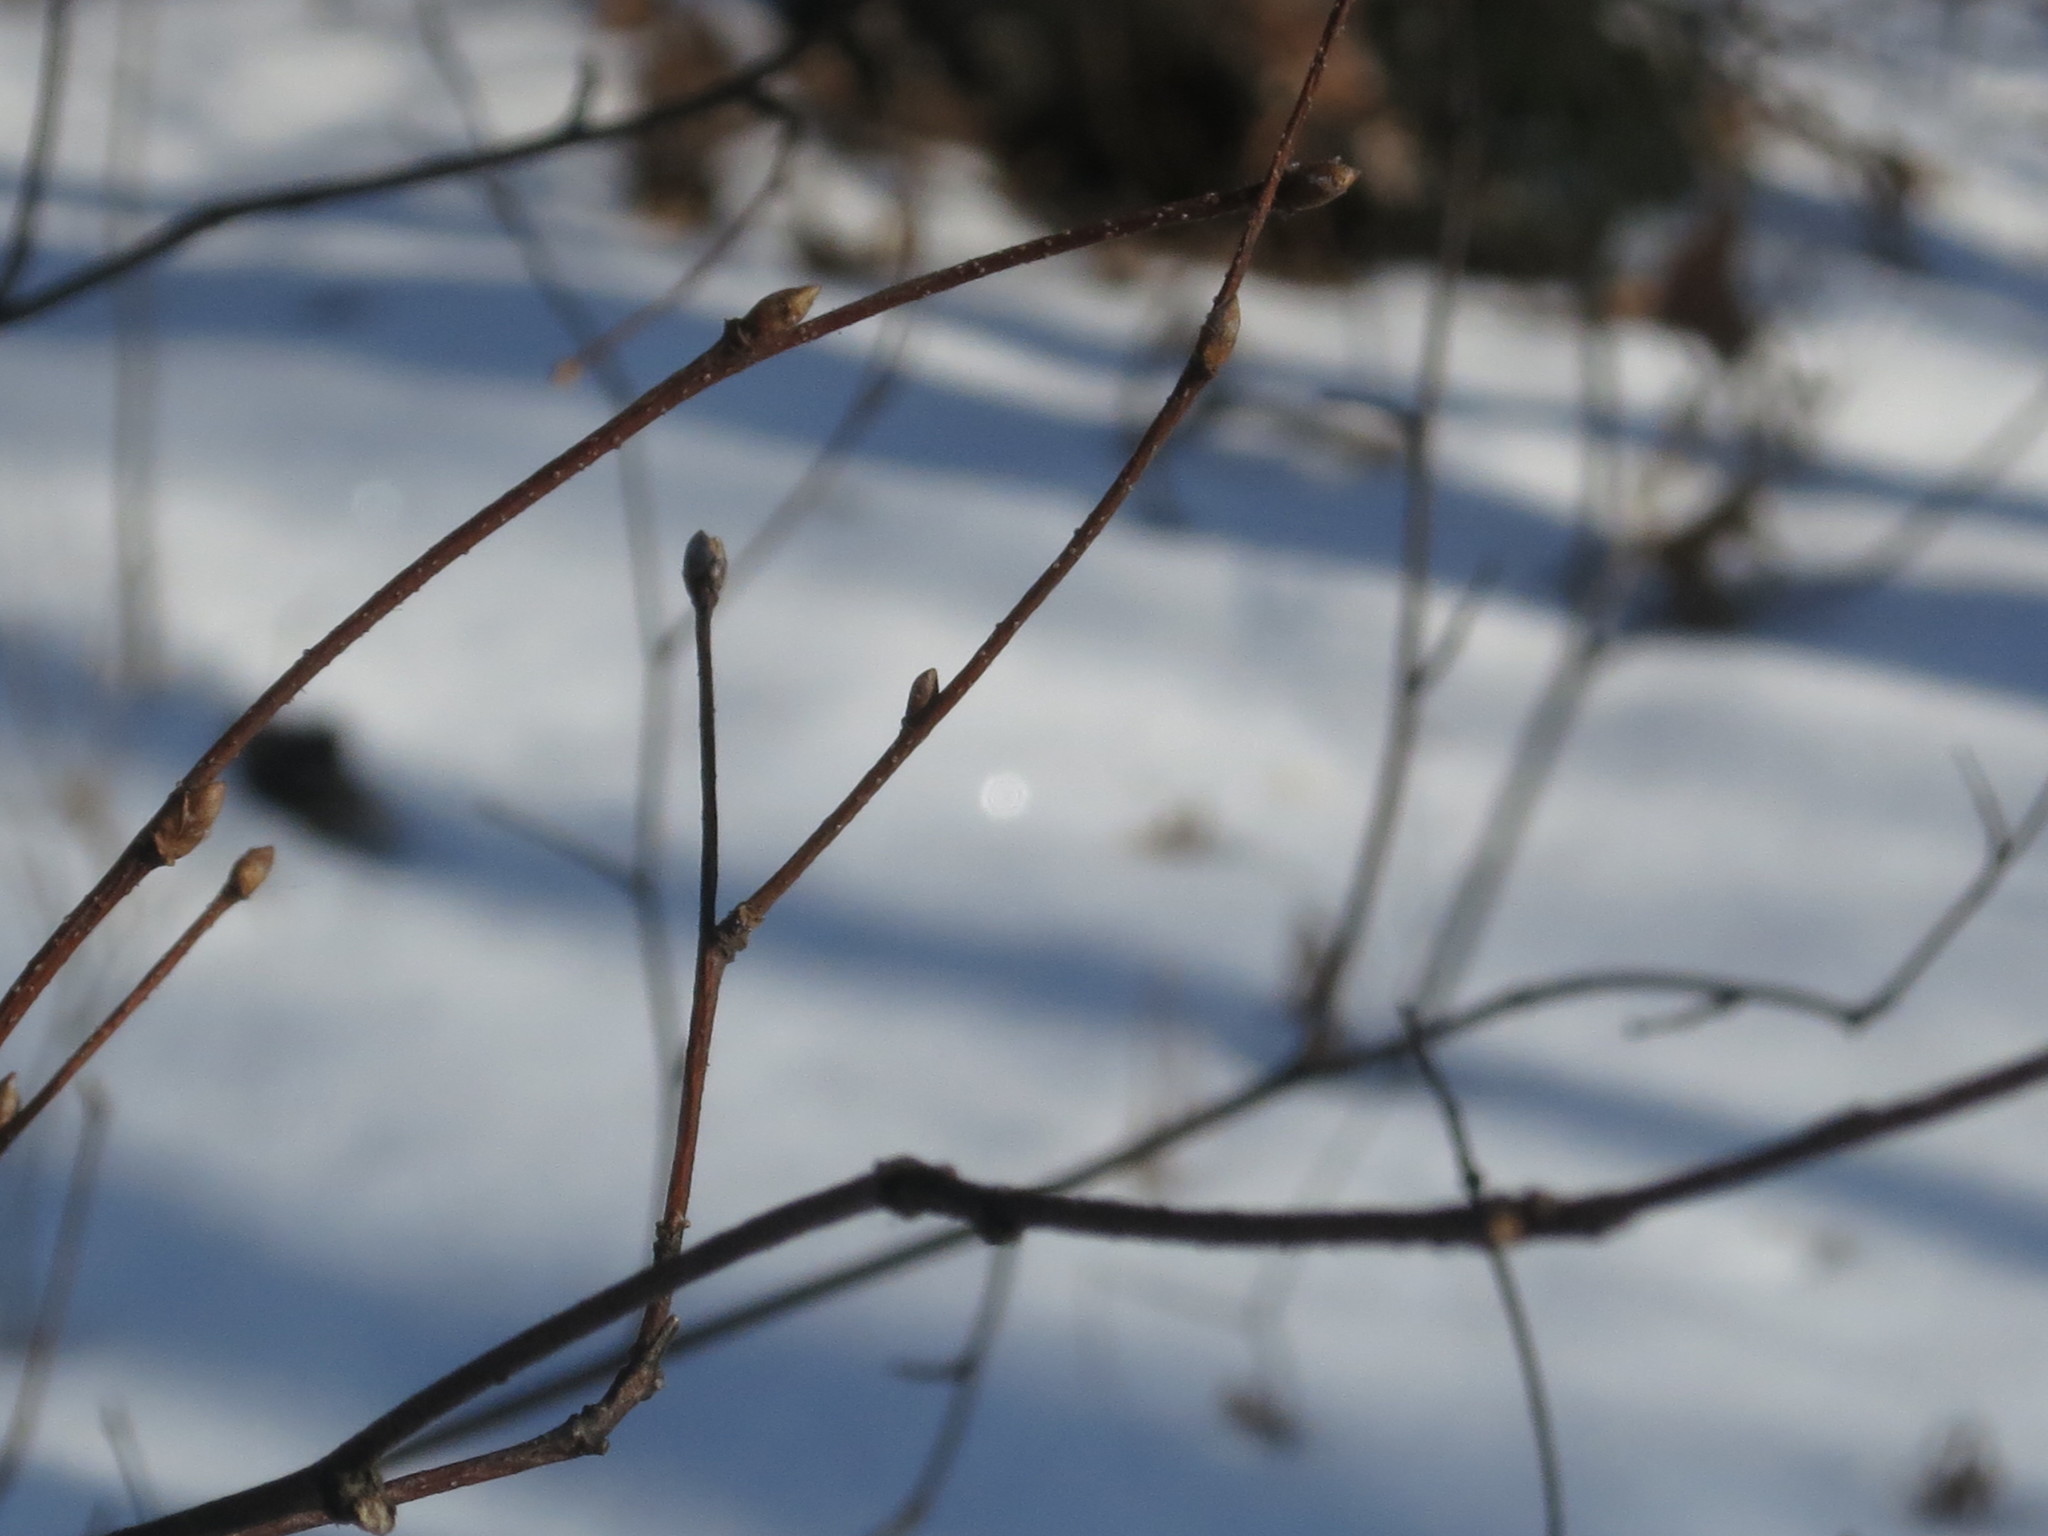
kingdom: Plantae
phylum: Tracheophyta
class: Magnoliopsida
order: Fagales
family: Betulaceae
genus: Betula
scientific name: Betula dauurica
